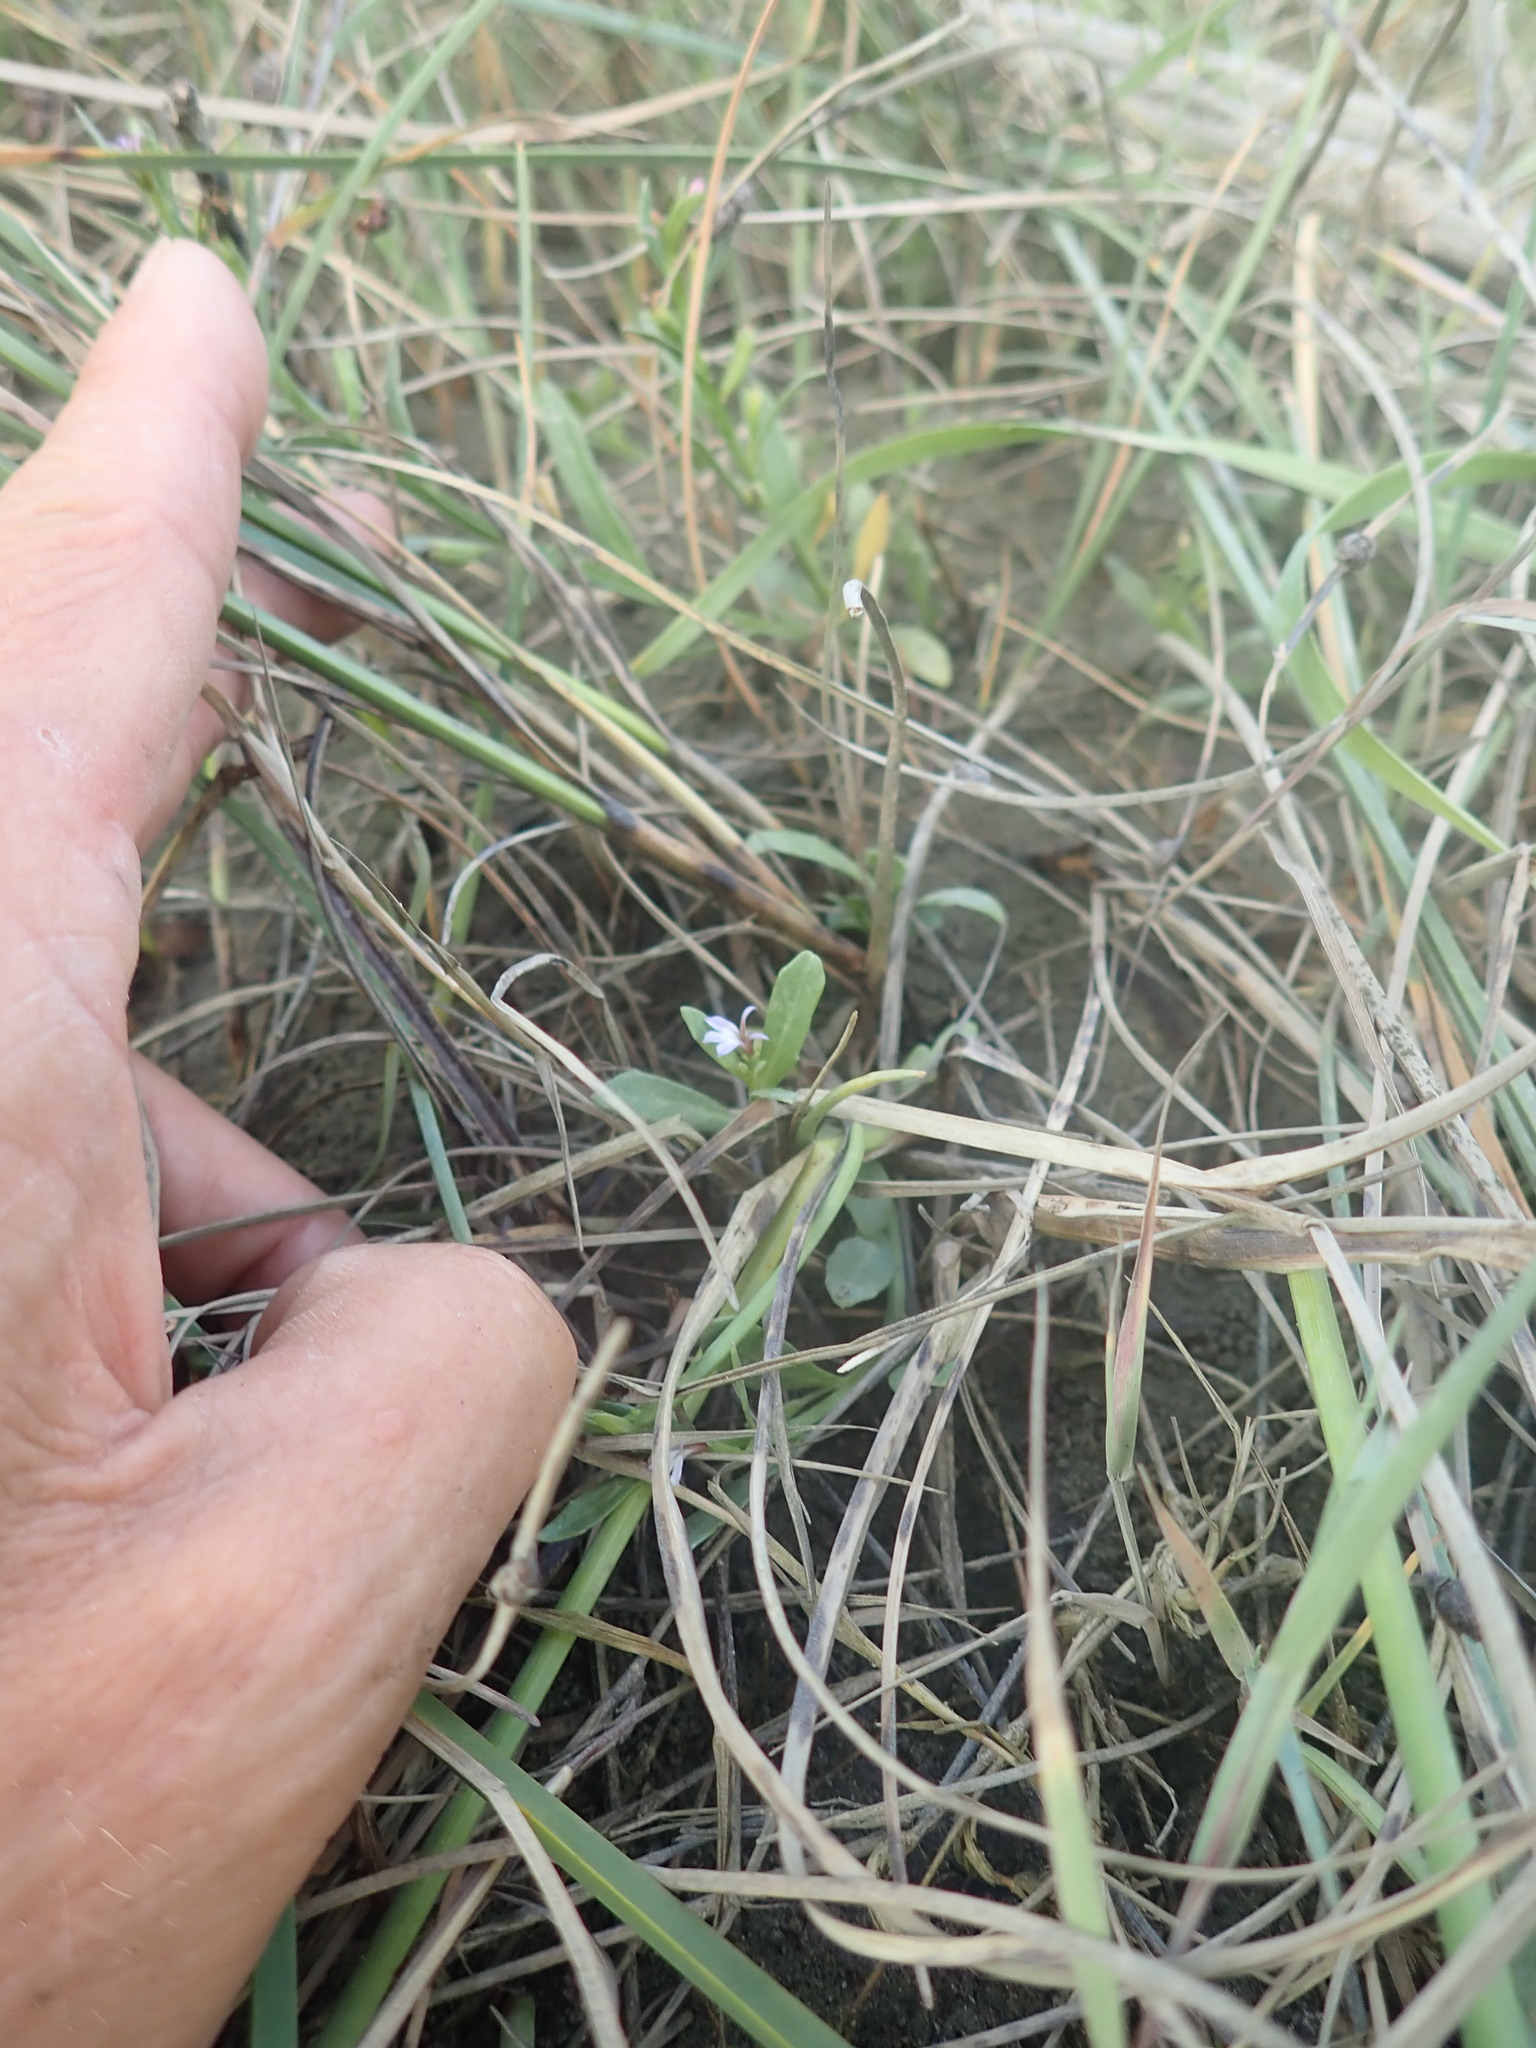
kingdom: Plantae
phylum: Tracheophyta
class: Magnoliopsida
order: Asterales
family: Campanulaceae
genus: Lobelia
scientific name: Lobelia anceps
